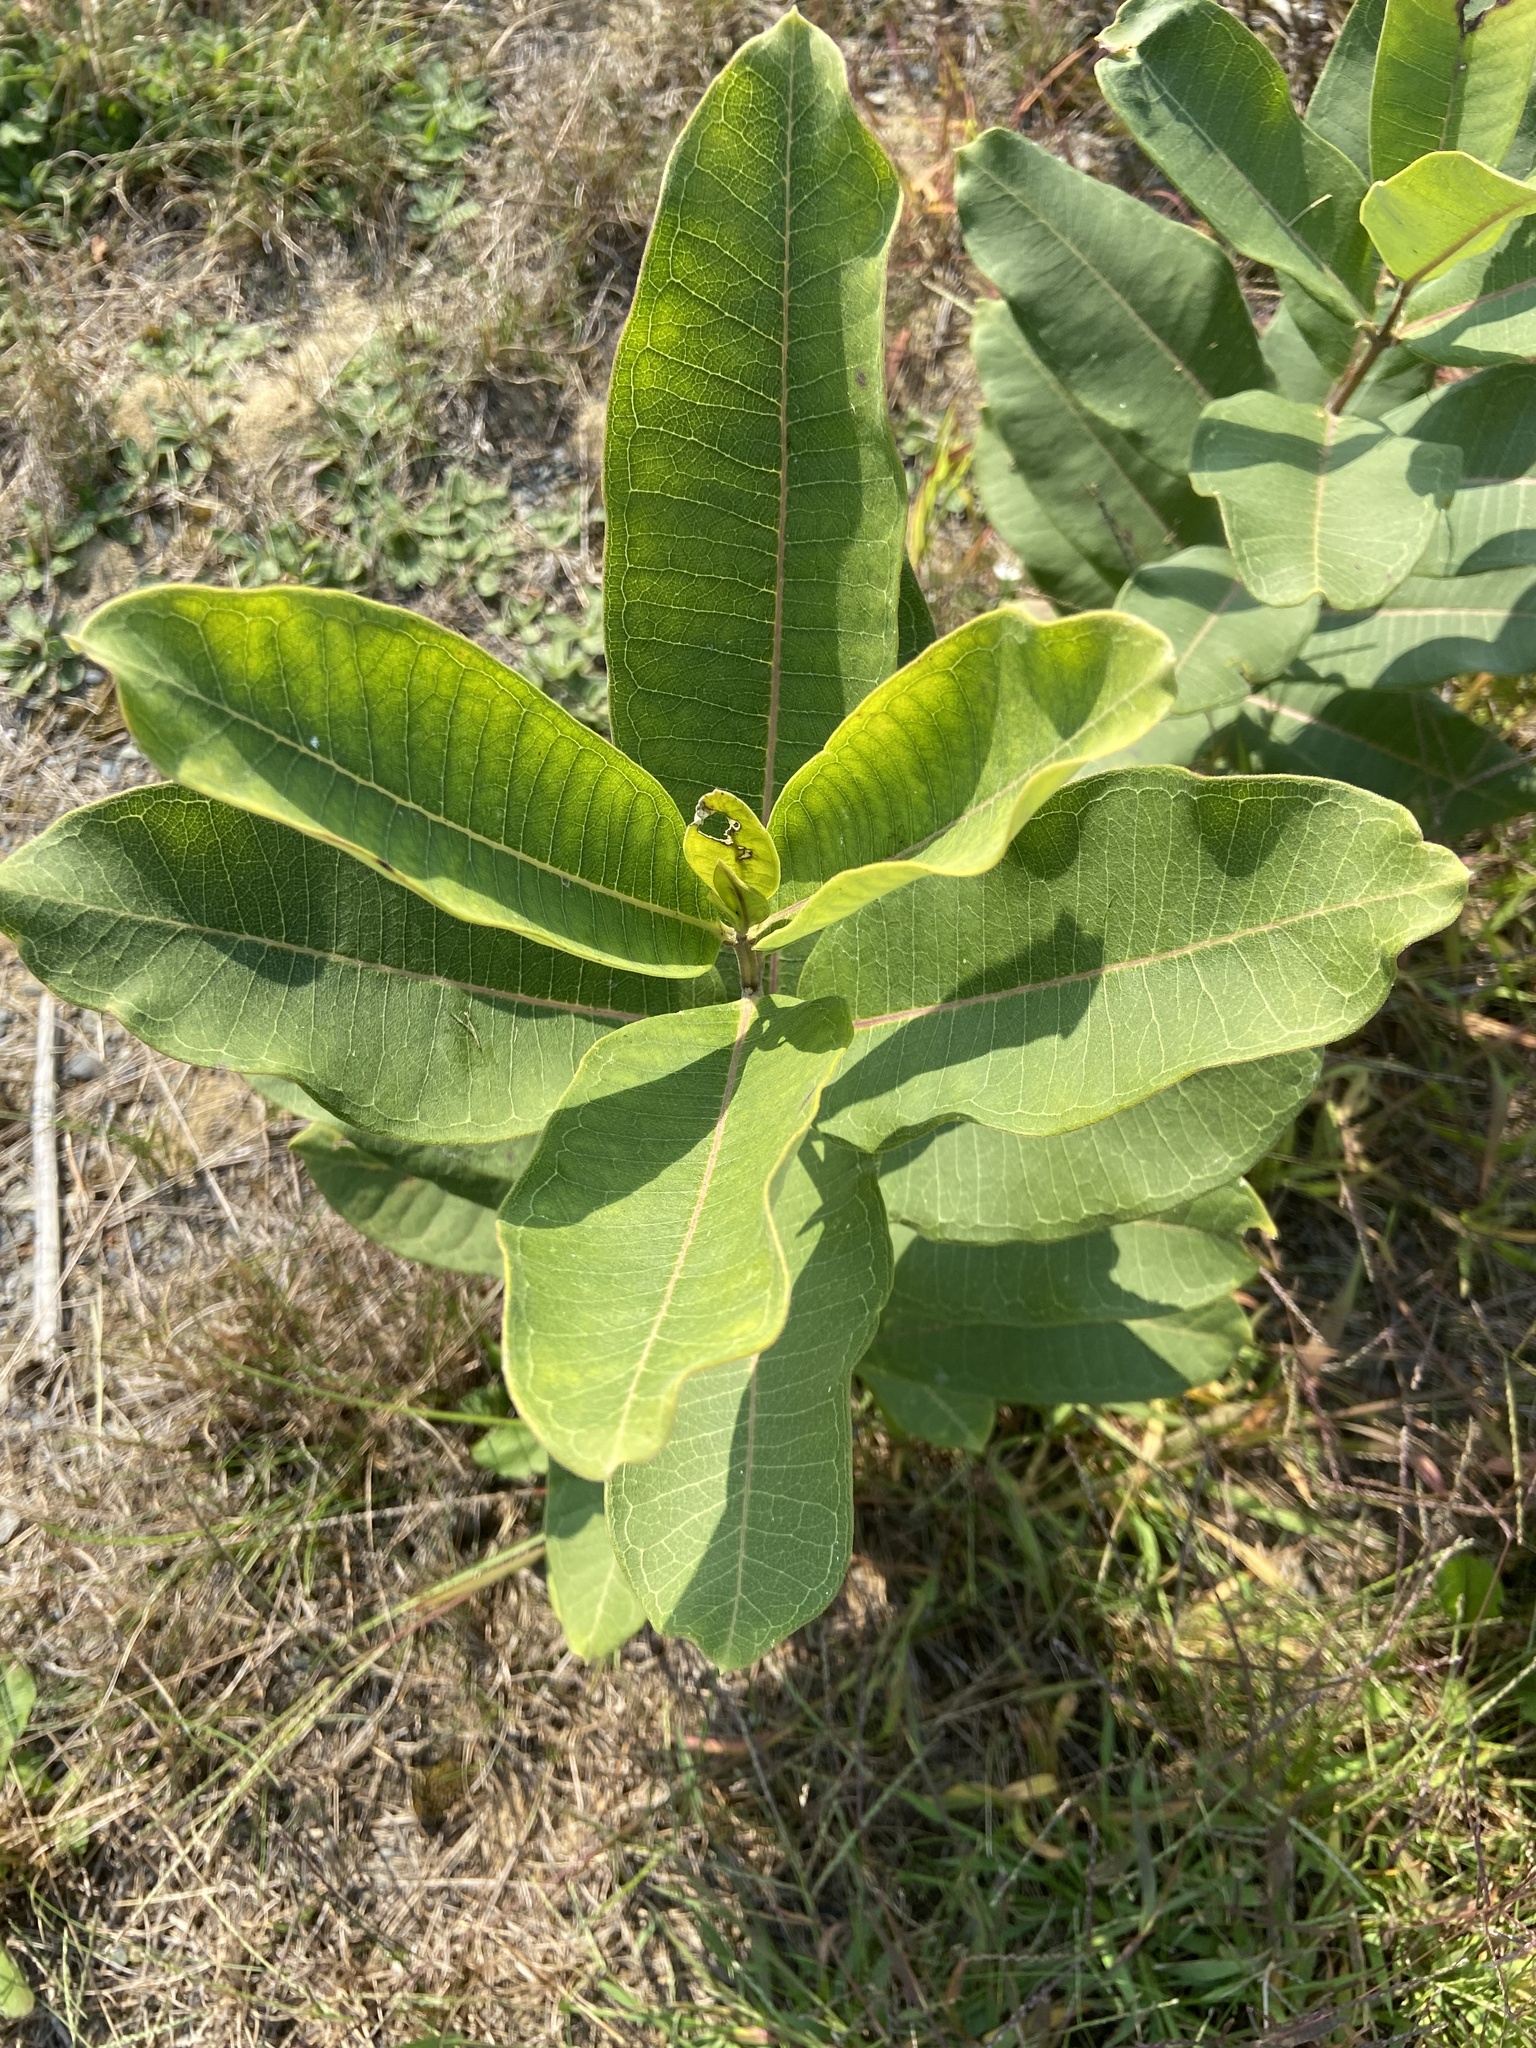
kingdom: Plantae
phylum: Tracheophyta
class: Magnoliopsida
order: Gentianales
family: Apocynaceae
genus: Asclepias
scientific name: Asclepias syriaca
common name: Common milkweed
